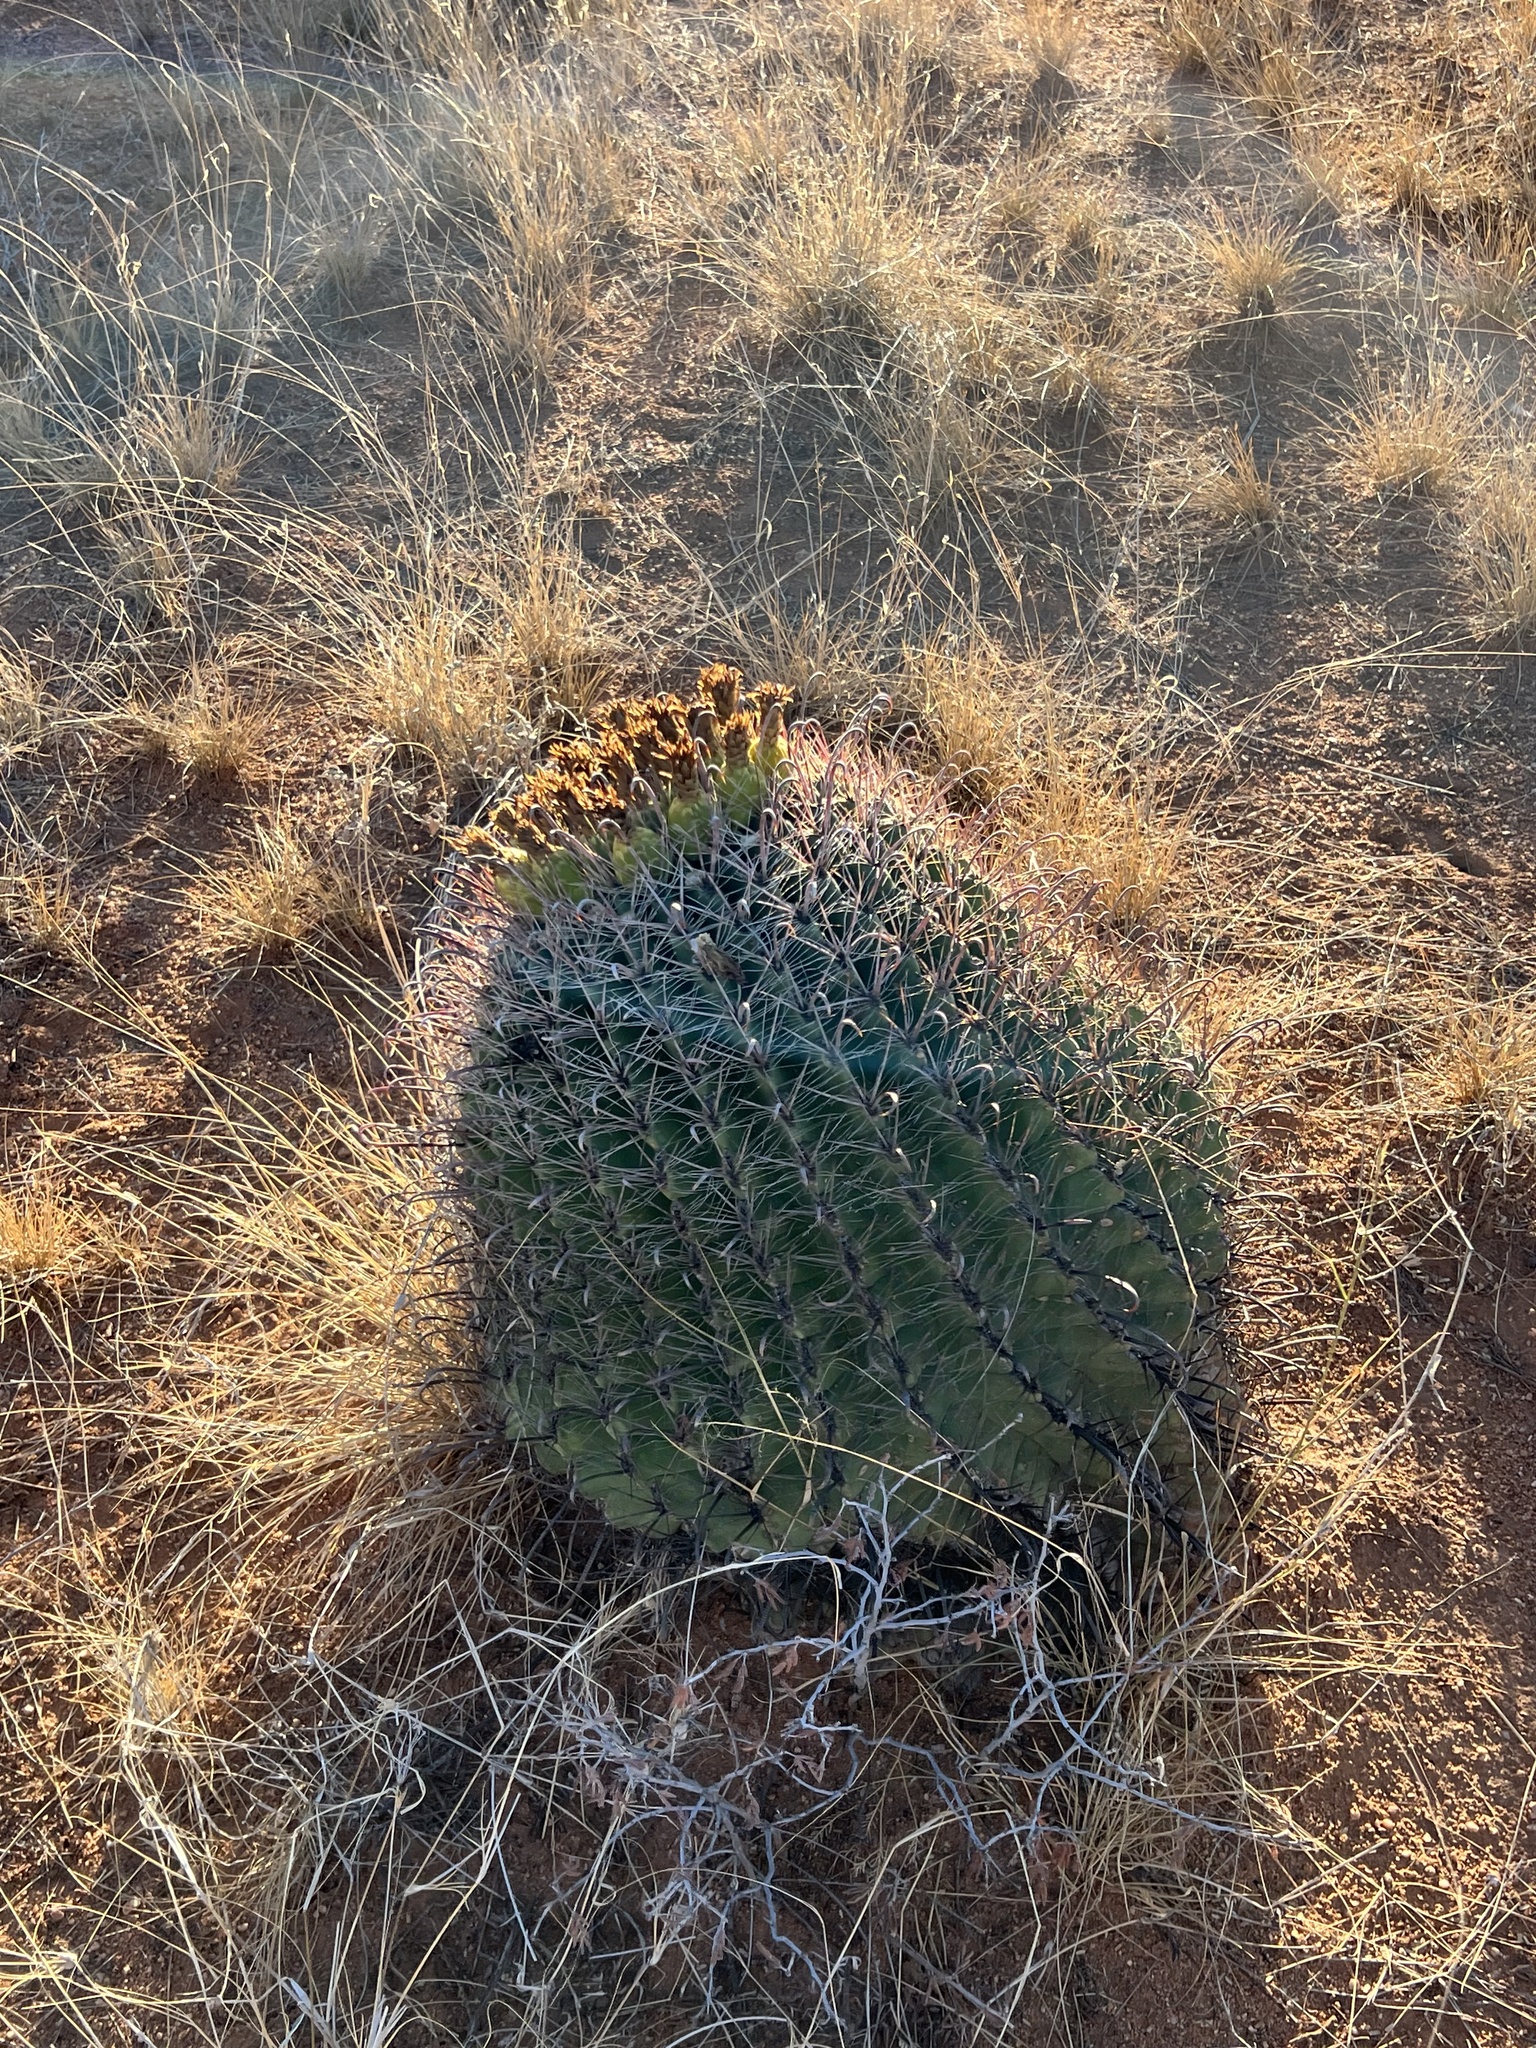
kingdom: Plantae
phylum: Tracheophyta
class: Magnoliopsida
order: Caryophyllales
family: Cactaceae
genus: Ferocactus
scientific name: Ferocactus wislizeni
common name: Candy barrel cactus
